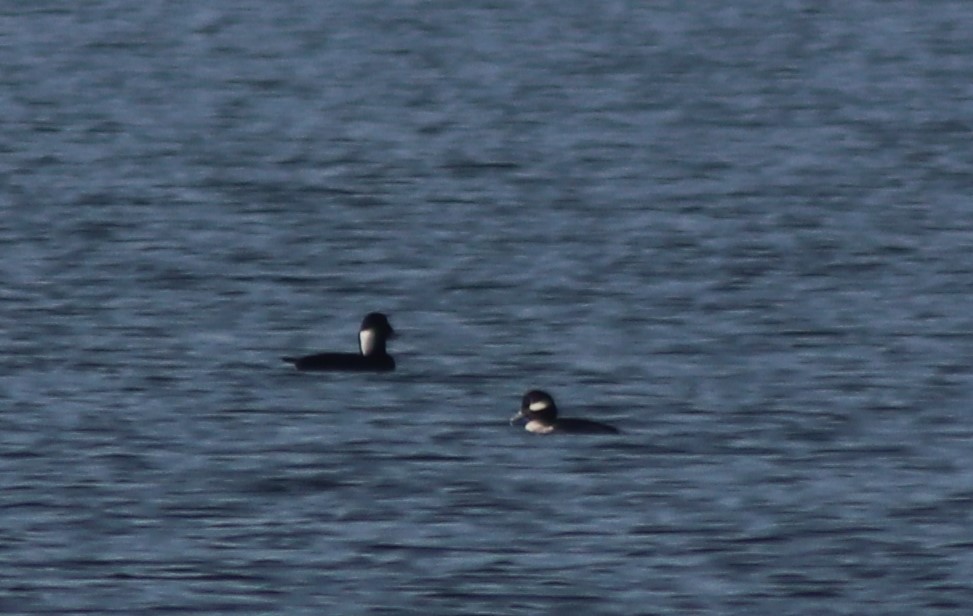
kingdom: Animalia
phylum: Chordata
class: Aves
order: Anseriformes
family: Anatidae
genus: Bucephala
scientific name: Bucephala albeola
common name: Bufflehead
